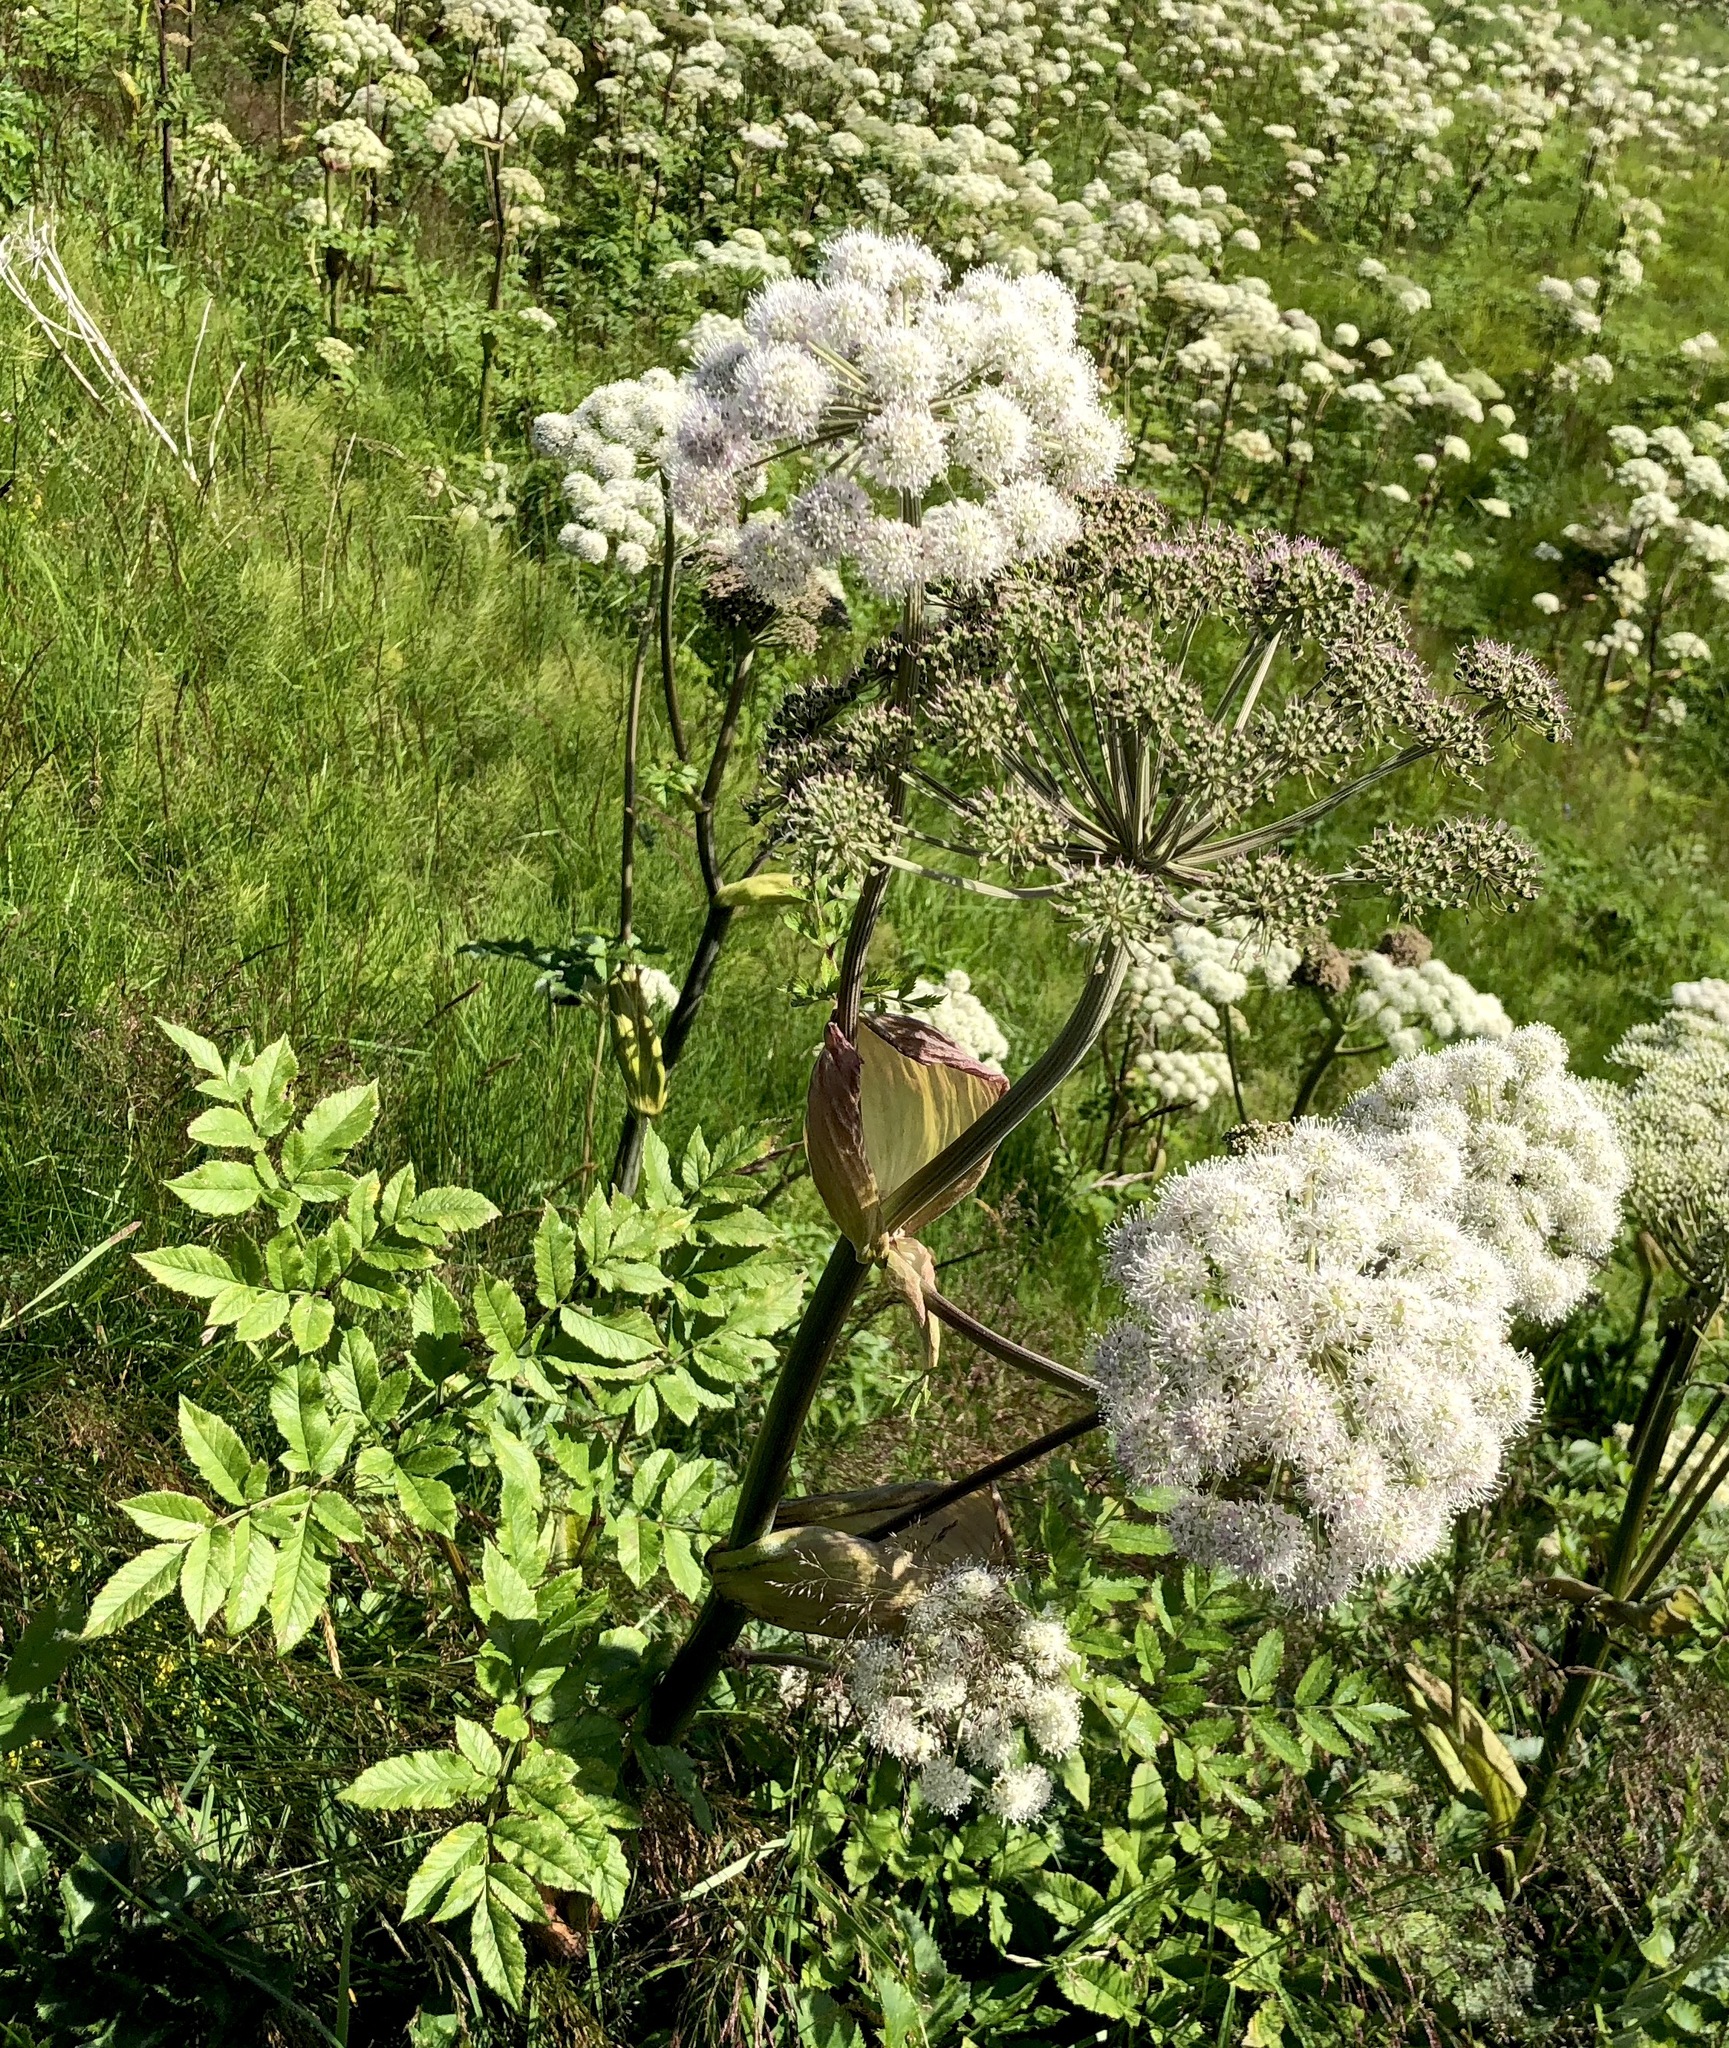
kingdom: Plantae
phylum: Tracheophyta
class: Magnoliopsida
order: Apiales
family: Apiaceae
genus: Angelica
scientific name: Angelica sylvestris
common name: Wild angelica
